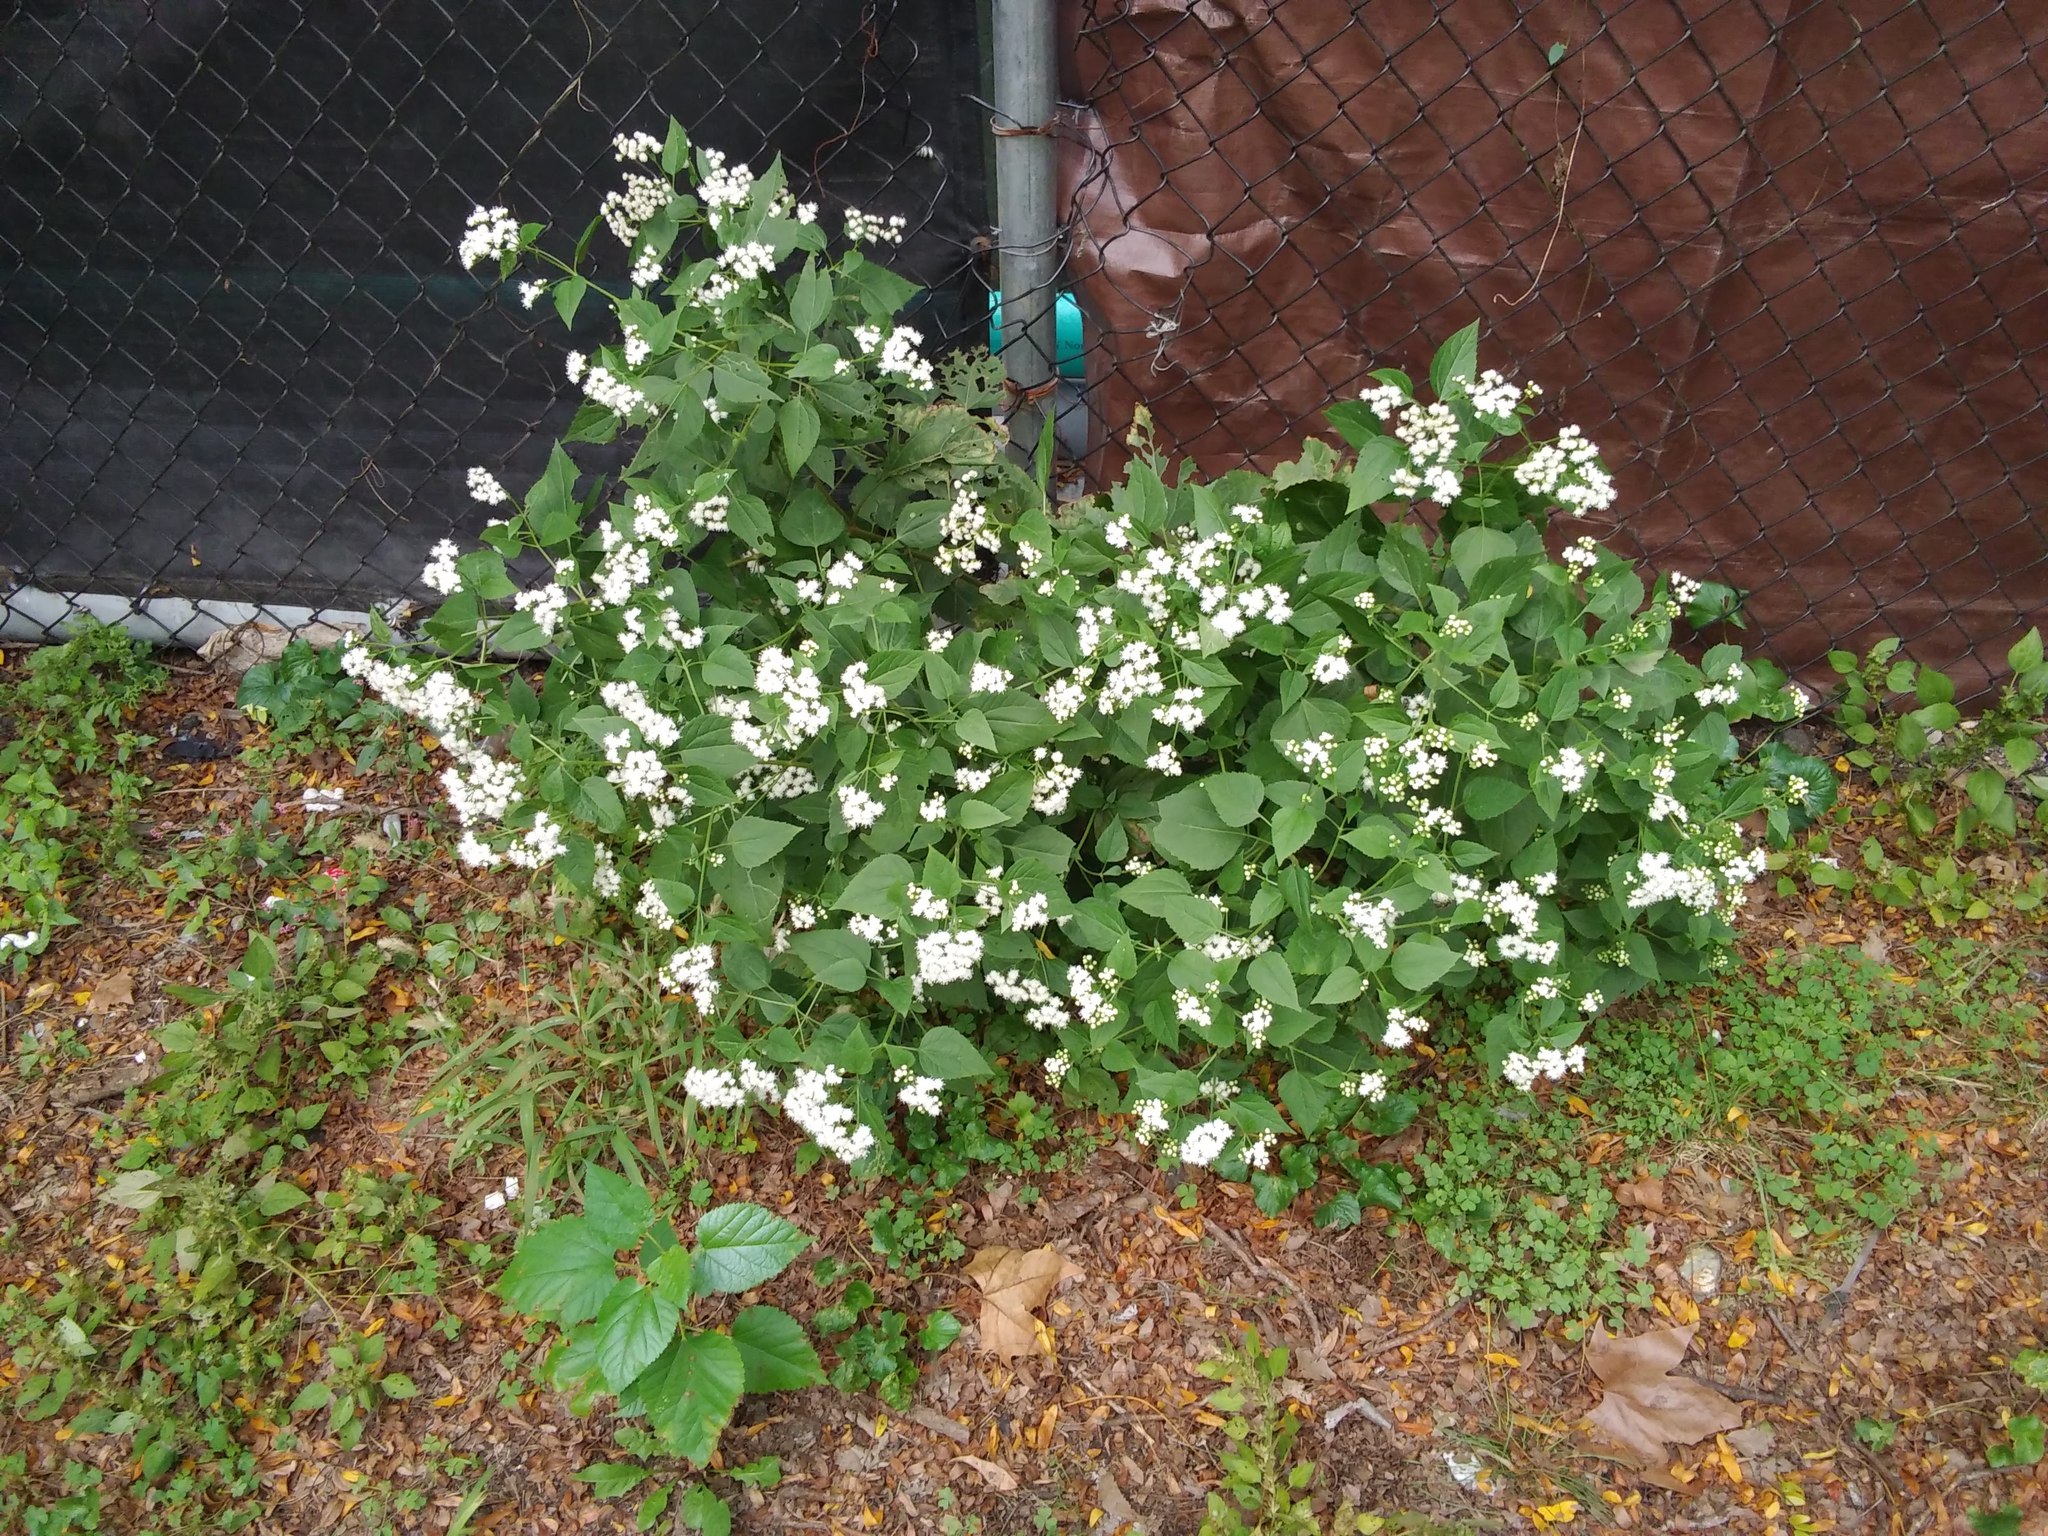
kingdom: Plantae
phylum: Tracheophyta
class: Magnoliopsida
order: Asterales
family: Asteraceae
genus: Ageratina
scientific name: Ageratina altissima
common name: White snakeroot
